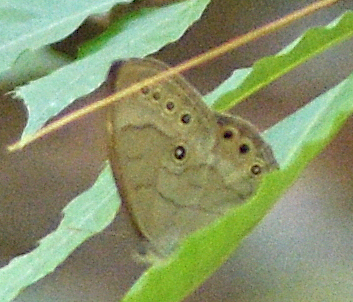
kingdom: Animalia
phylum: Arthropoda
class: Insecta
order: Lepidoptera
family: Nymphalidae
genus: Lethe
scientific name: Lethe eurydice
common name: Eyed brown
